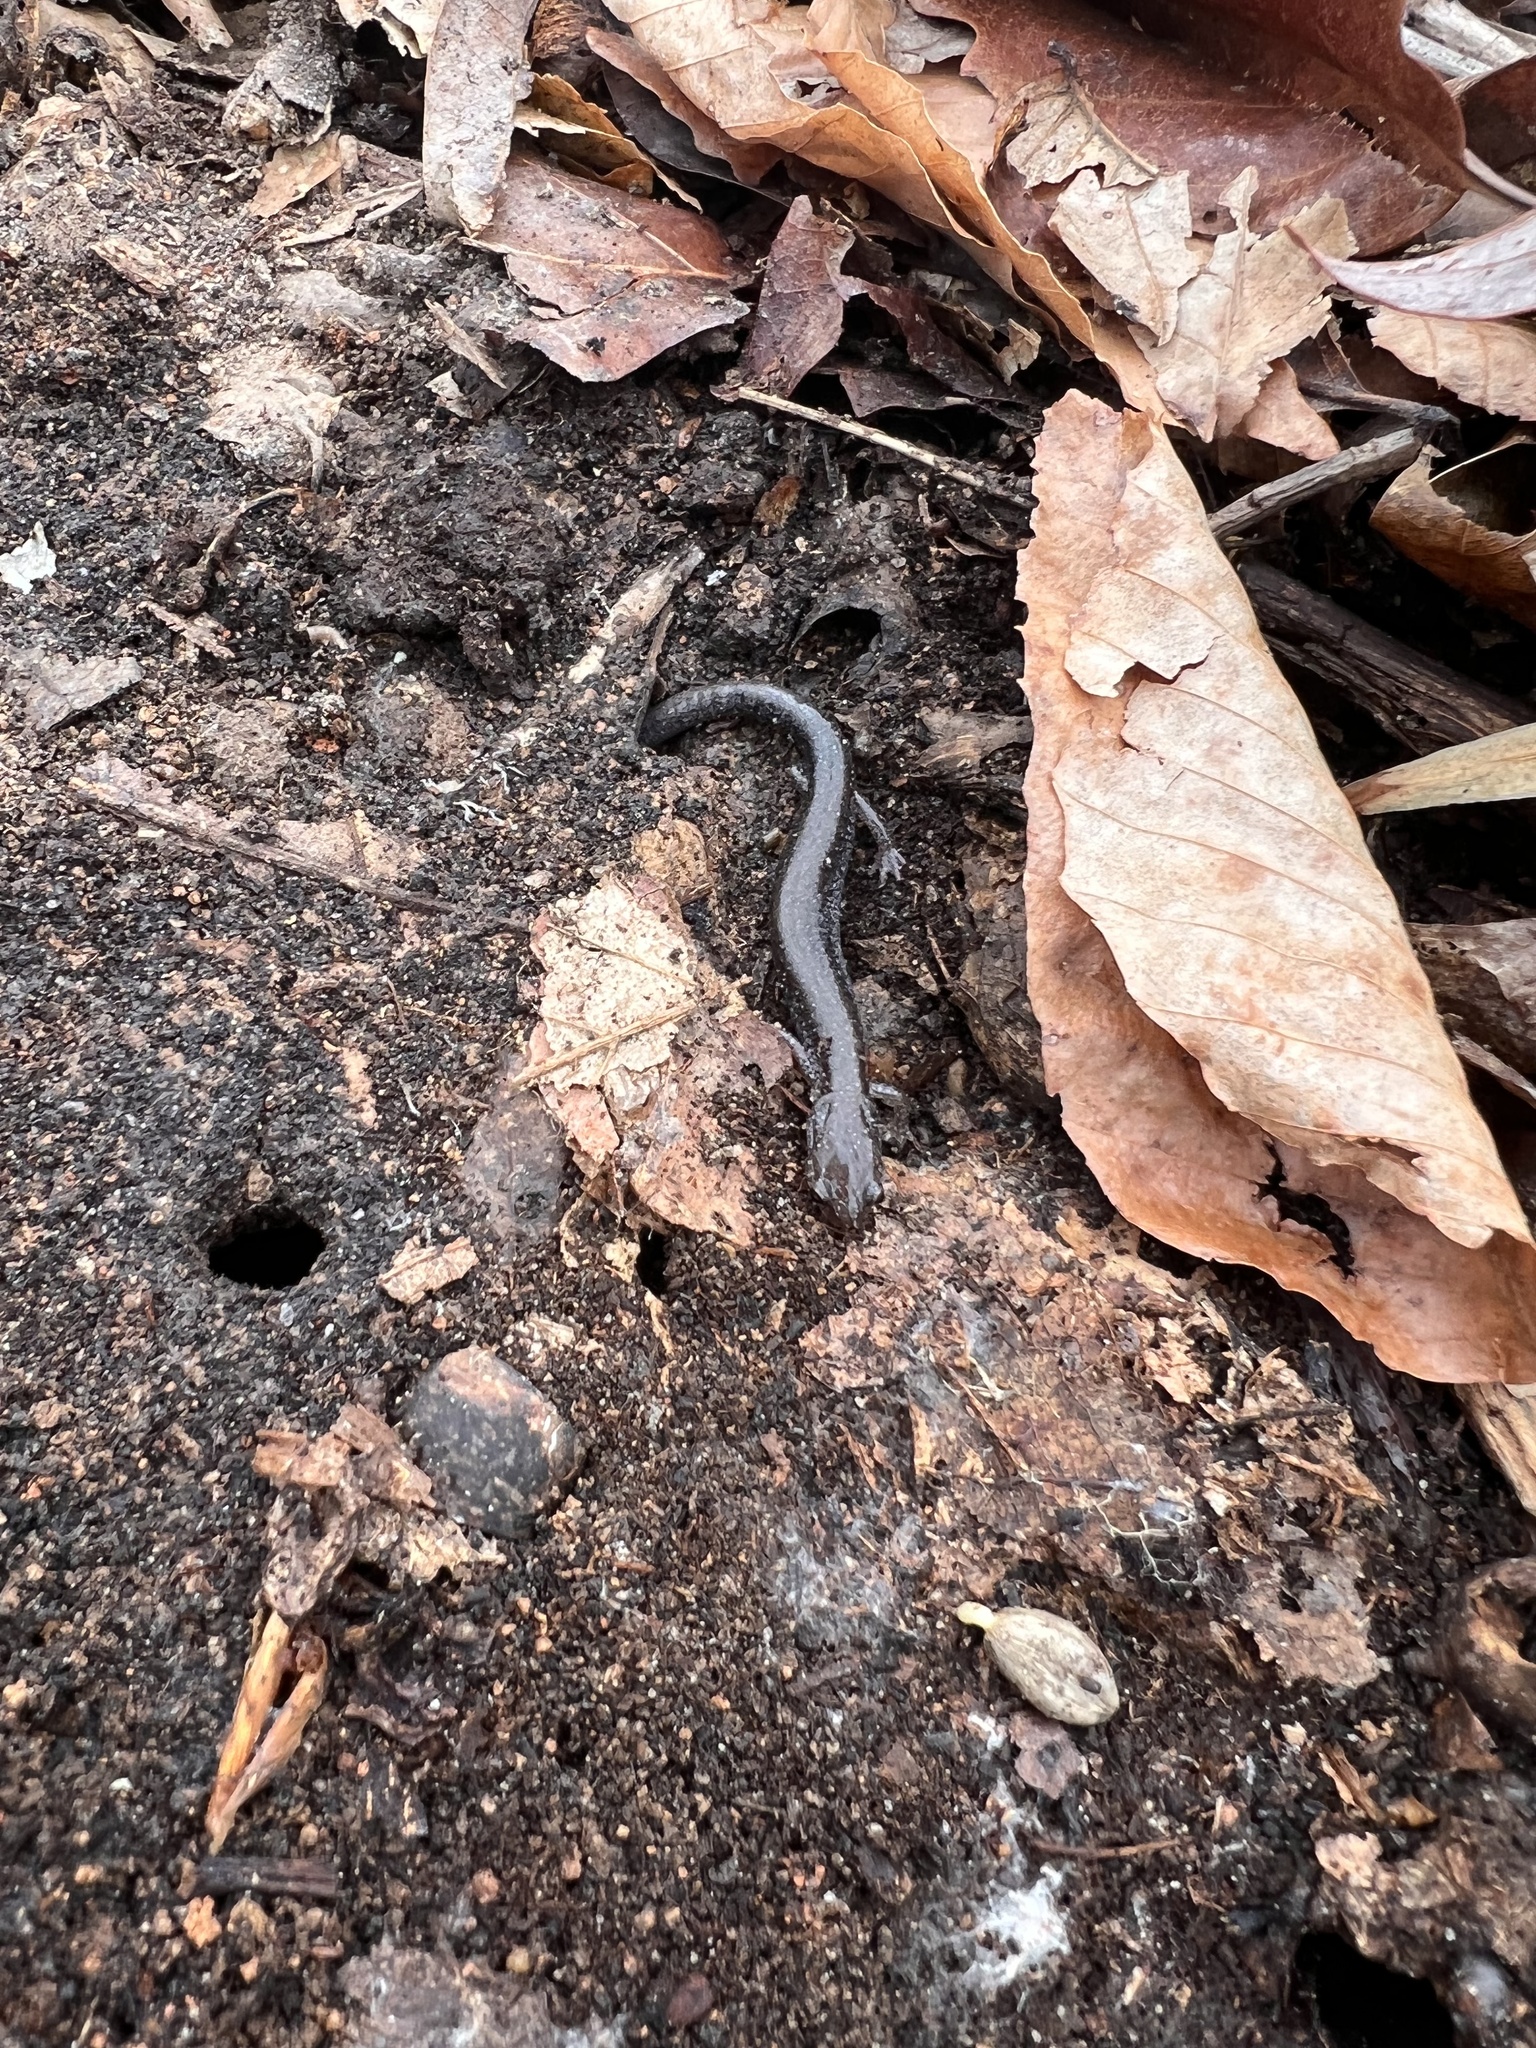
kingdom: Animalia
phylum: Chordata
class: Amphibia
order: Caudata
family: Plethodontidae
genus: Plethodon
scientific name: Plethodon cinereus
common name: Redback salamander
